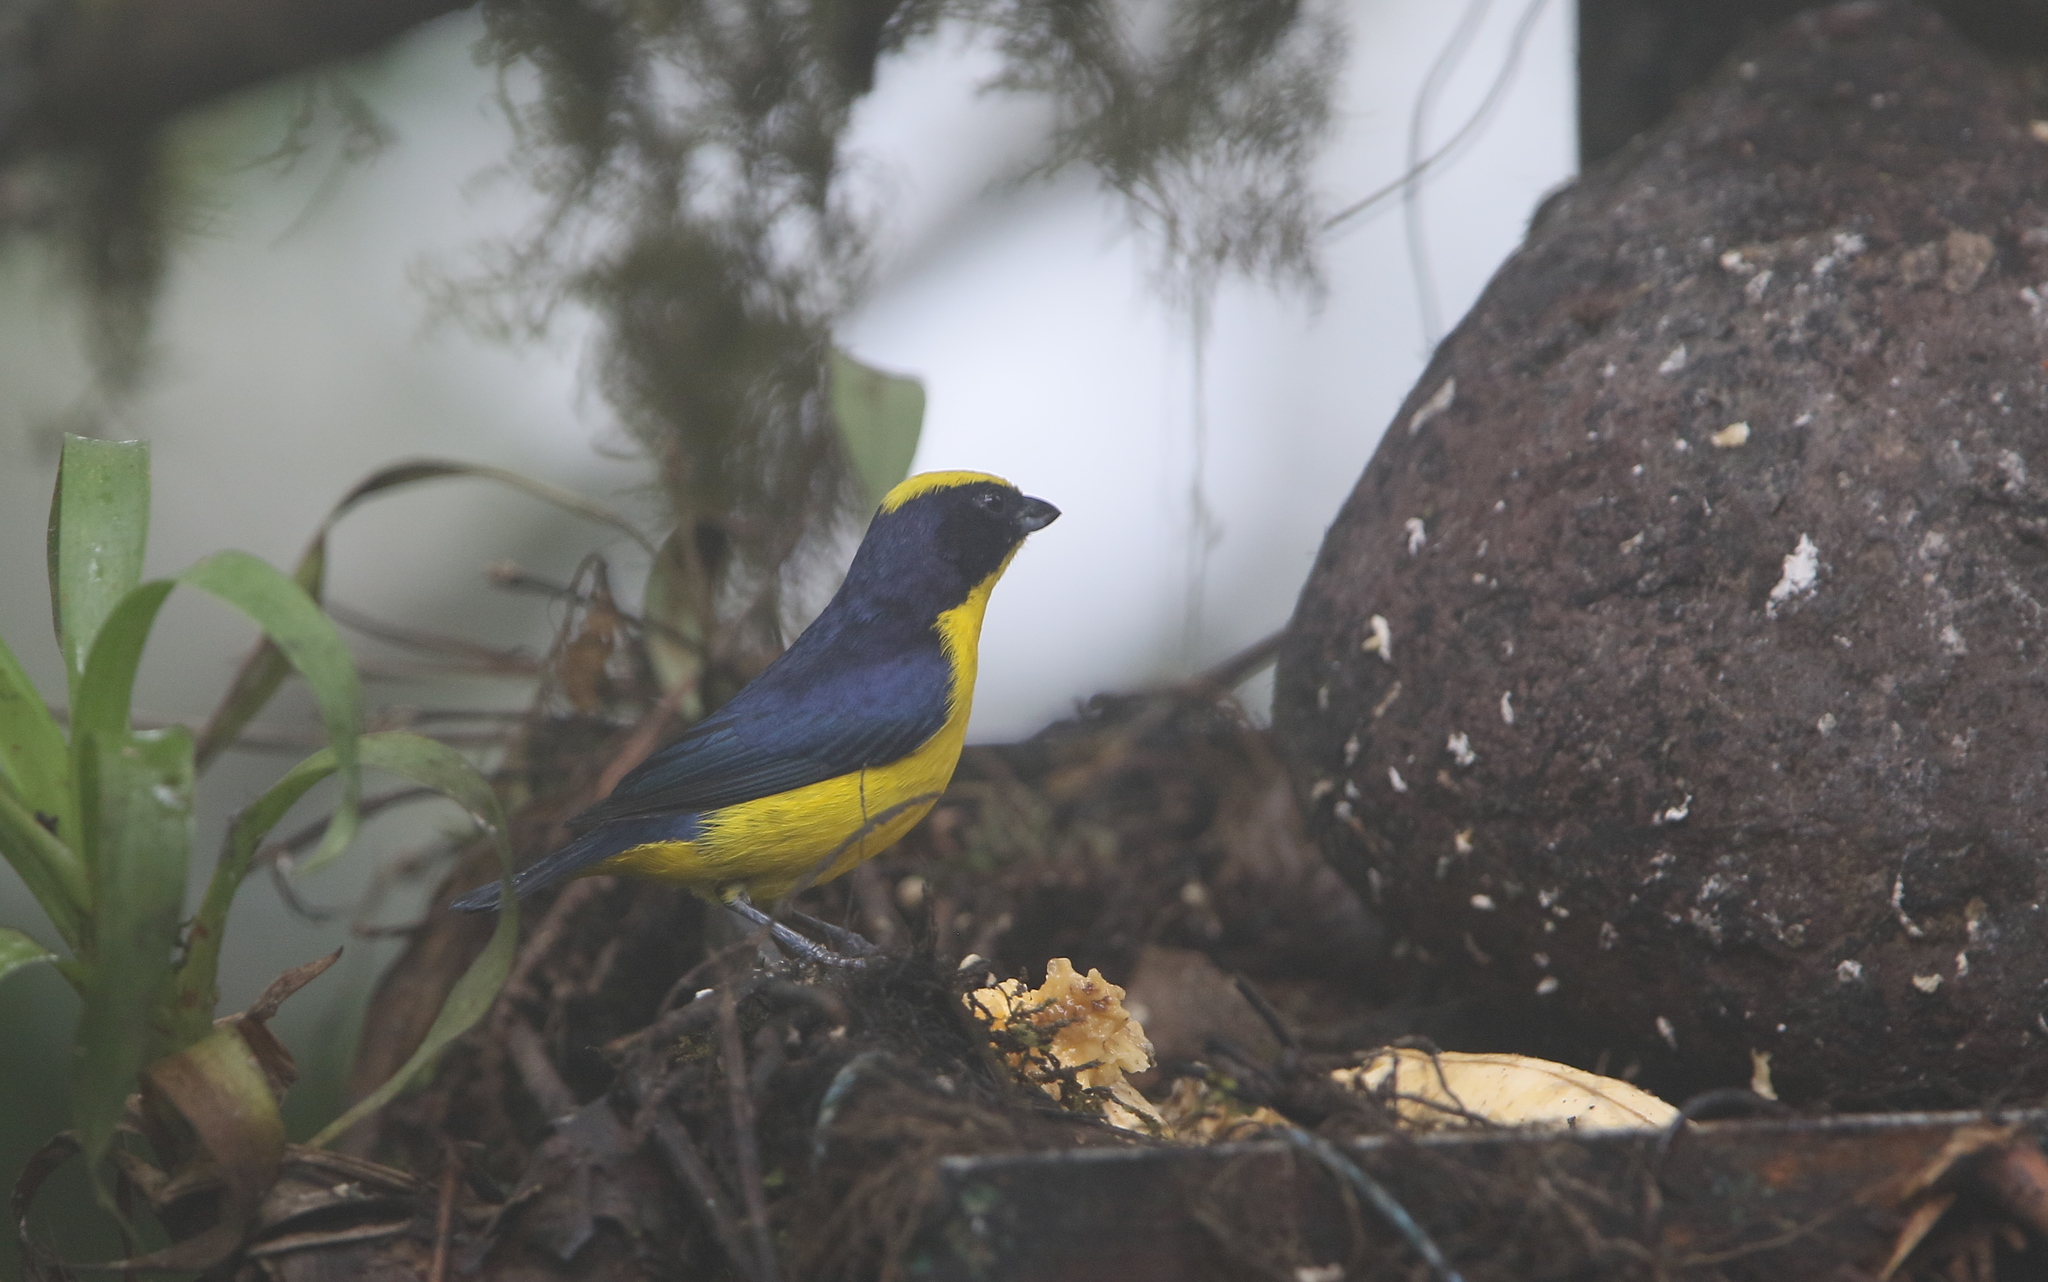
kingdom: Animalia
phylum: Chordata
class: Aves
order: Passeriformes
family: Fringillidae
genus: Euphonia
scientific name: Euphonia laniirostris
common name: Thick-billed euphonia
